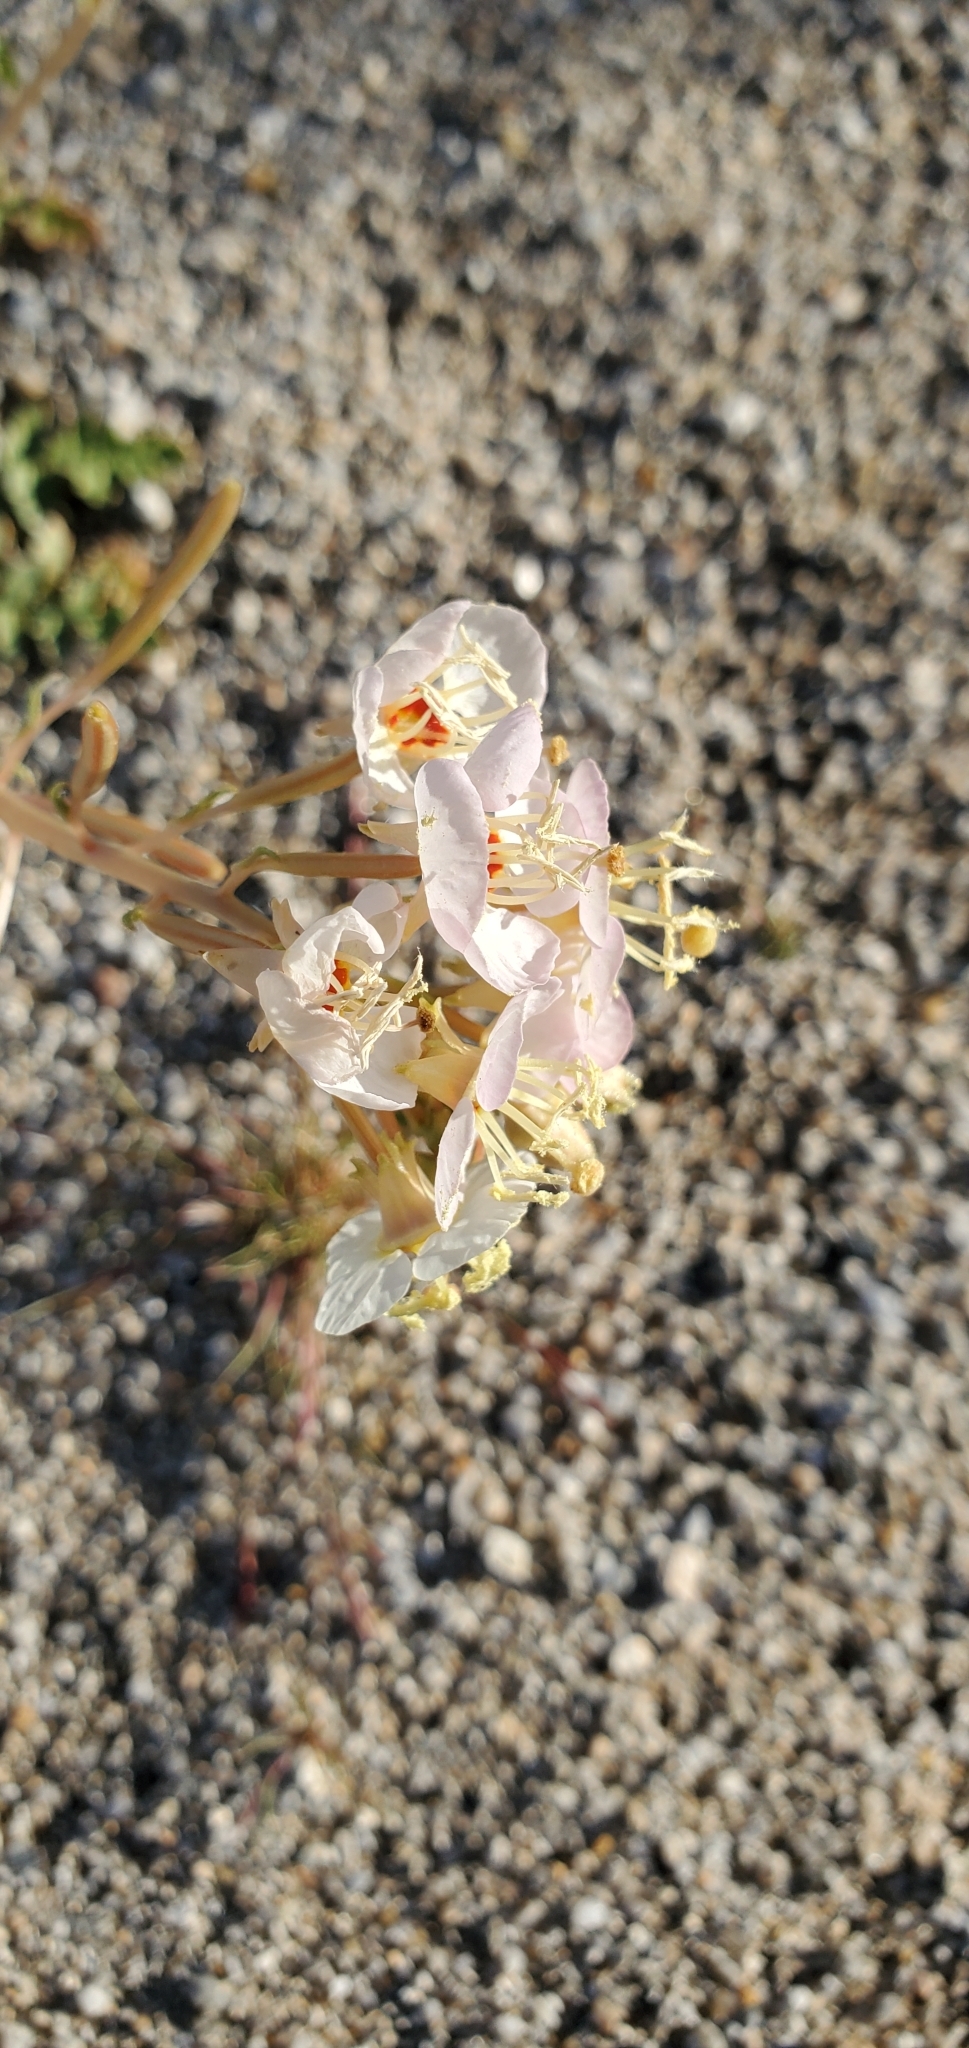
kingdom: Plantae
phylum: Tracheophyta
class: Magnoliopsida
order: Myrtales
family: Onagraceae
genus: Chylismia
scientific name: Chylismia claviformis
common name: Browneyes
